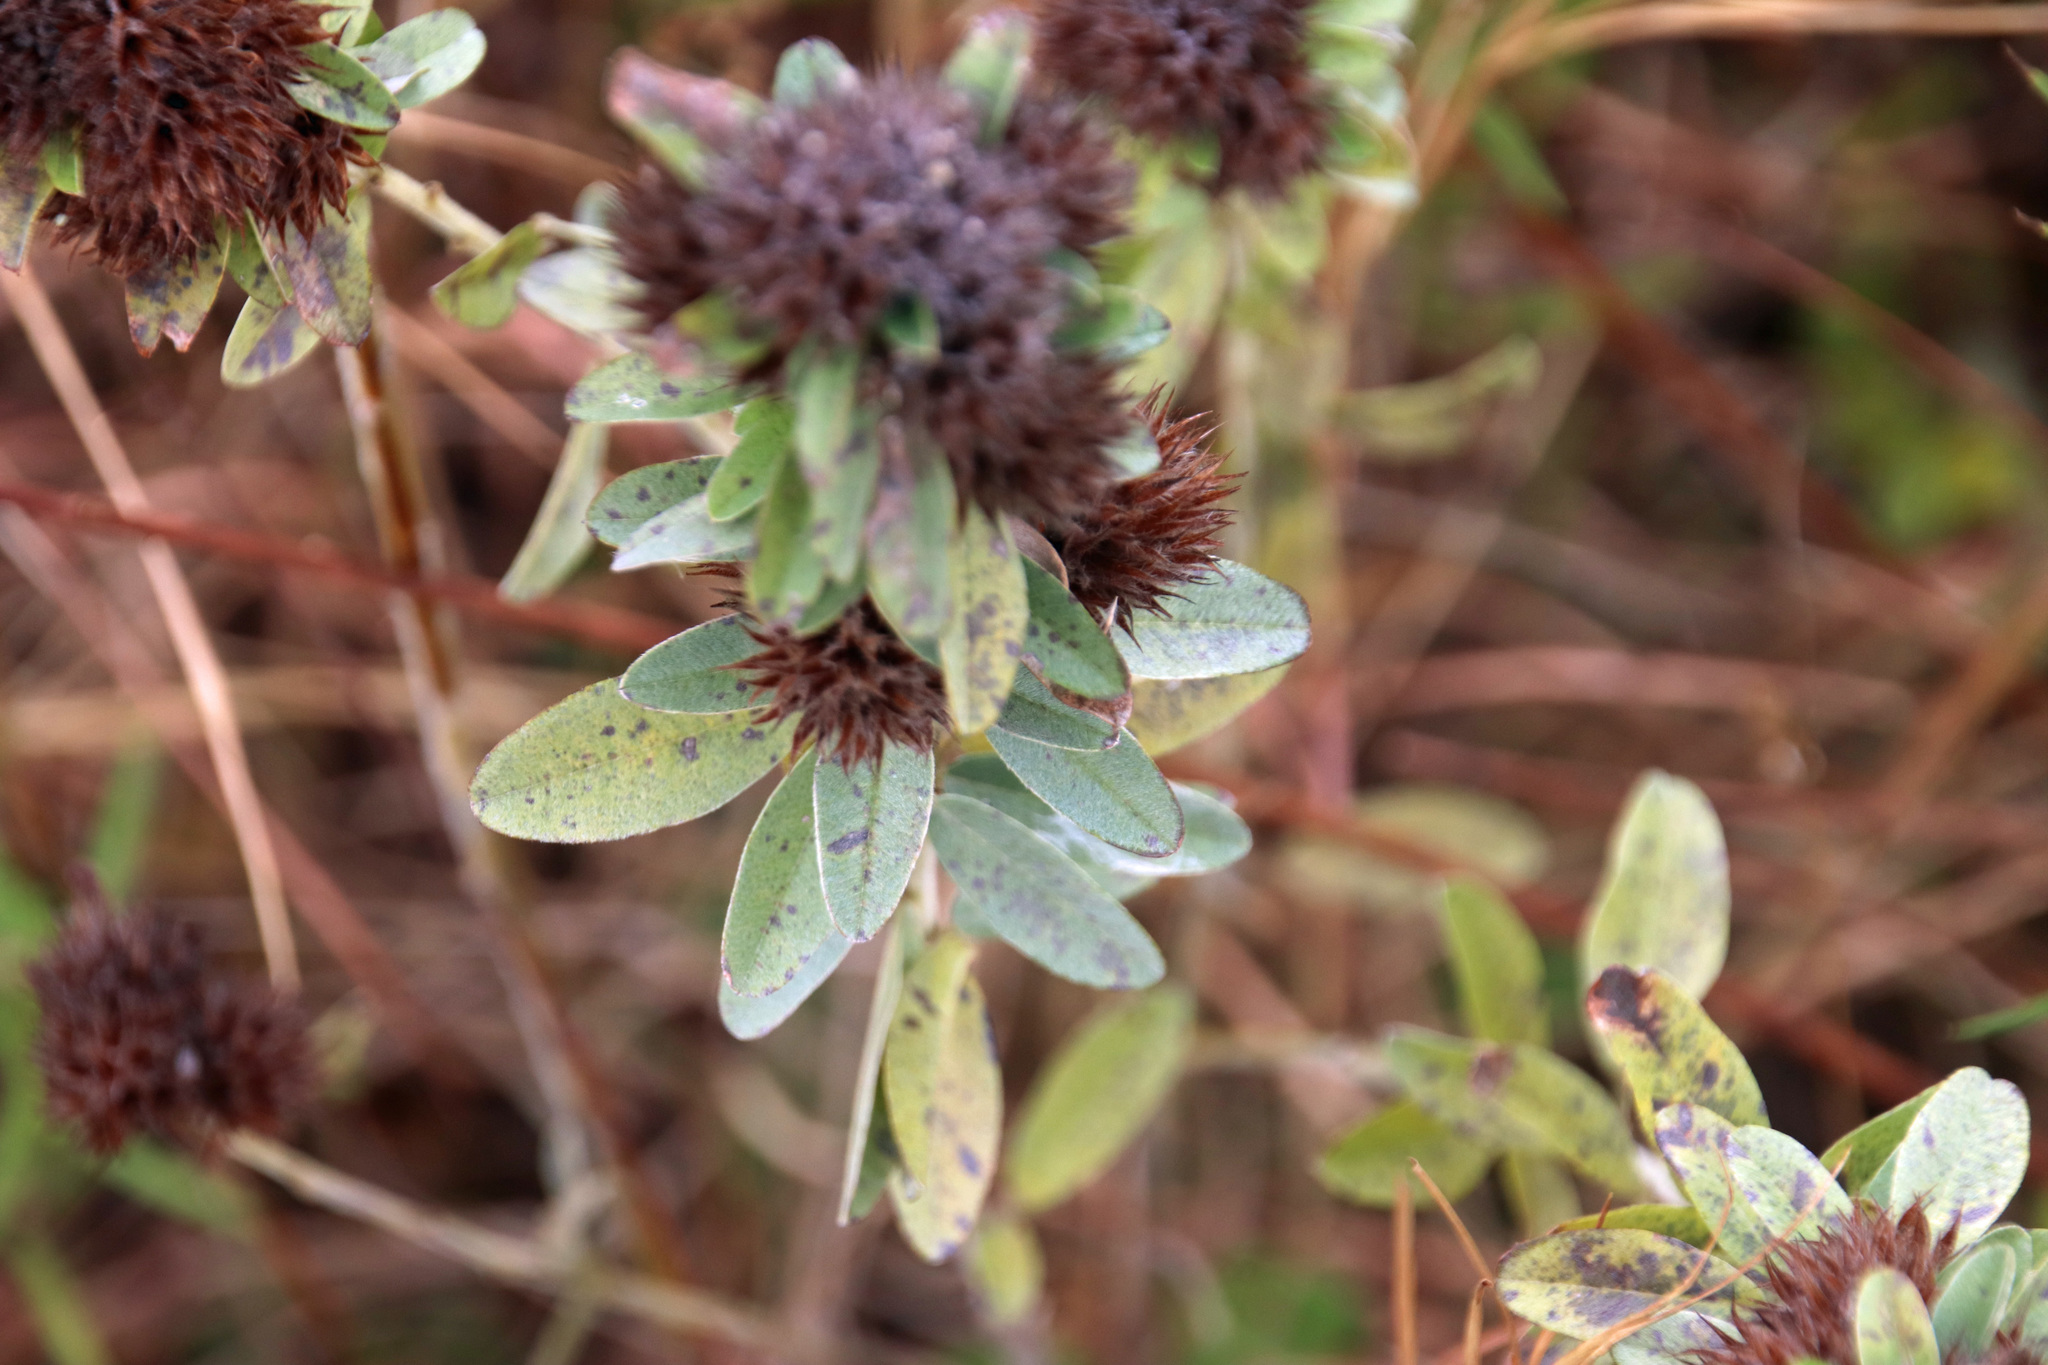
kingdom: Plantae
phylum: Tracheophyta
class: Magnoliopsida
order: Fabales
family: Fabaceae
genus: Lespedeza
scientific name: Lespedeza capitata
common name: Dusty clover
